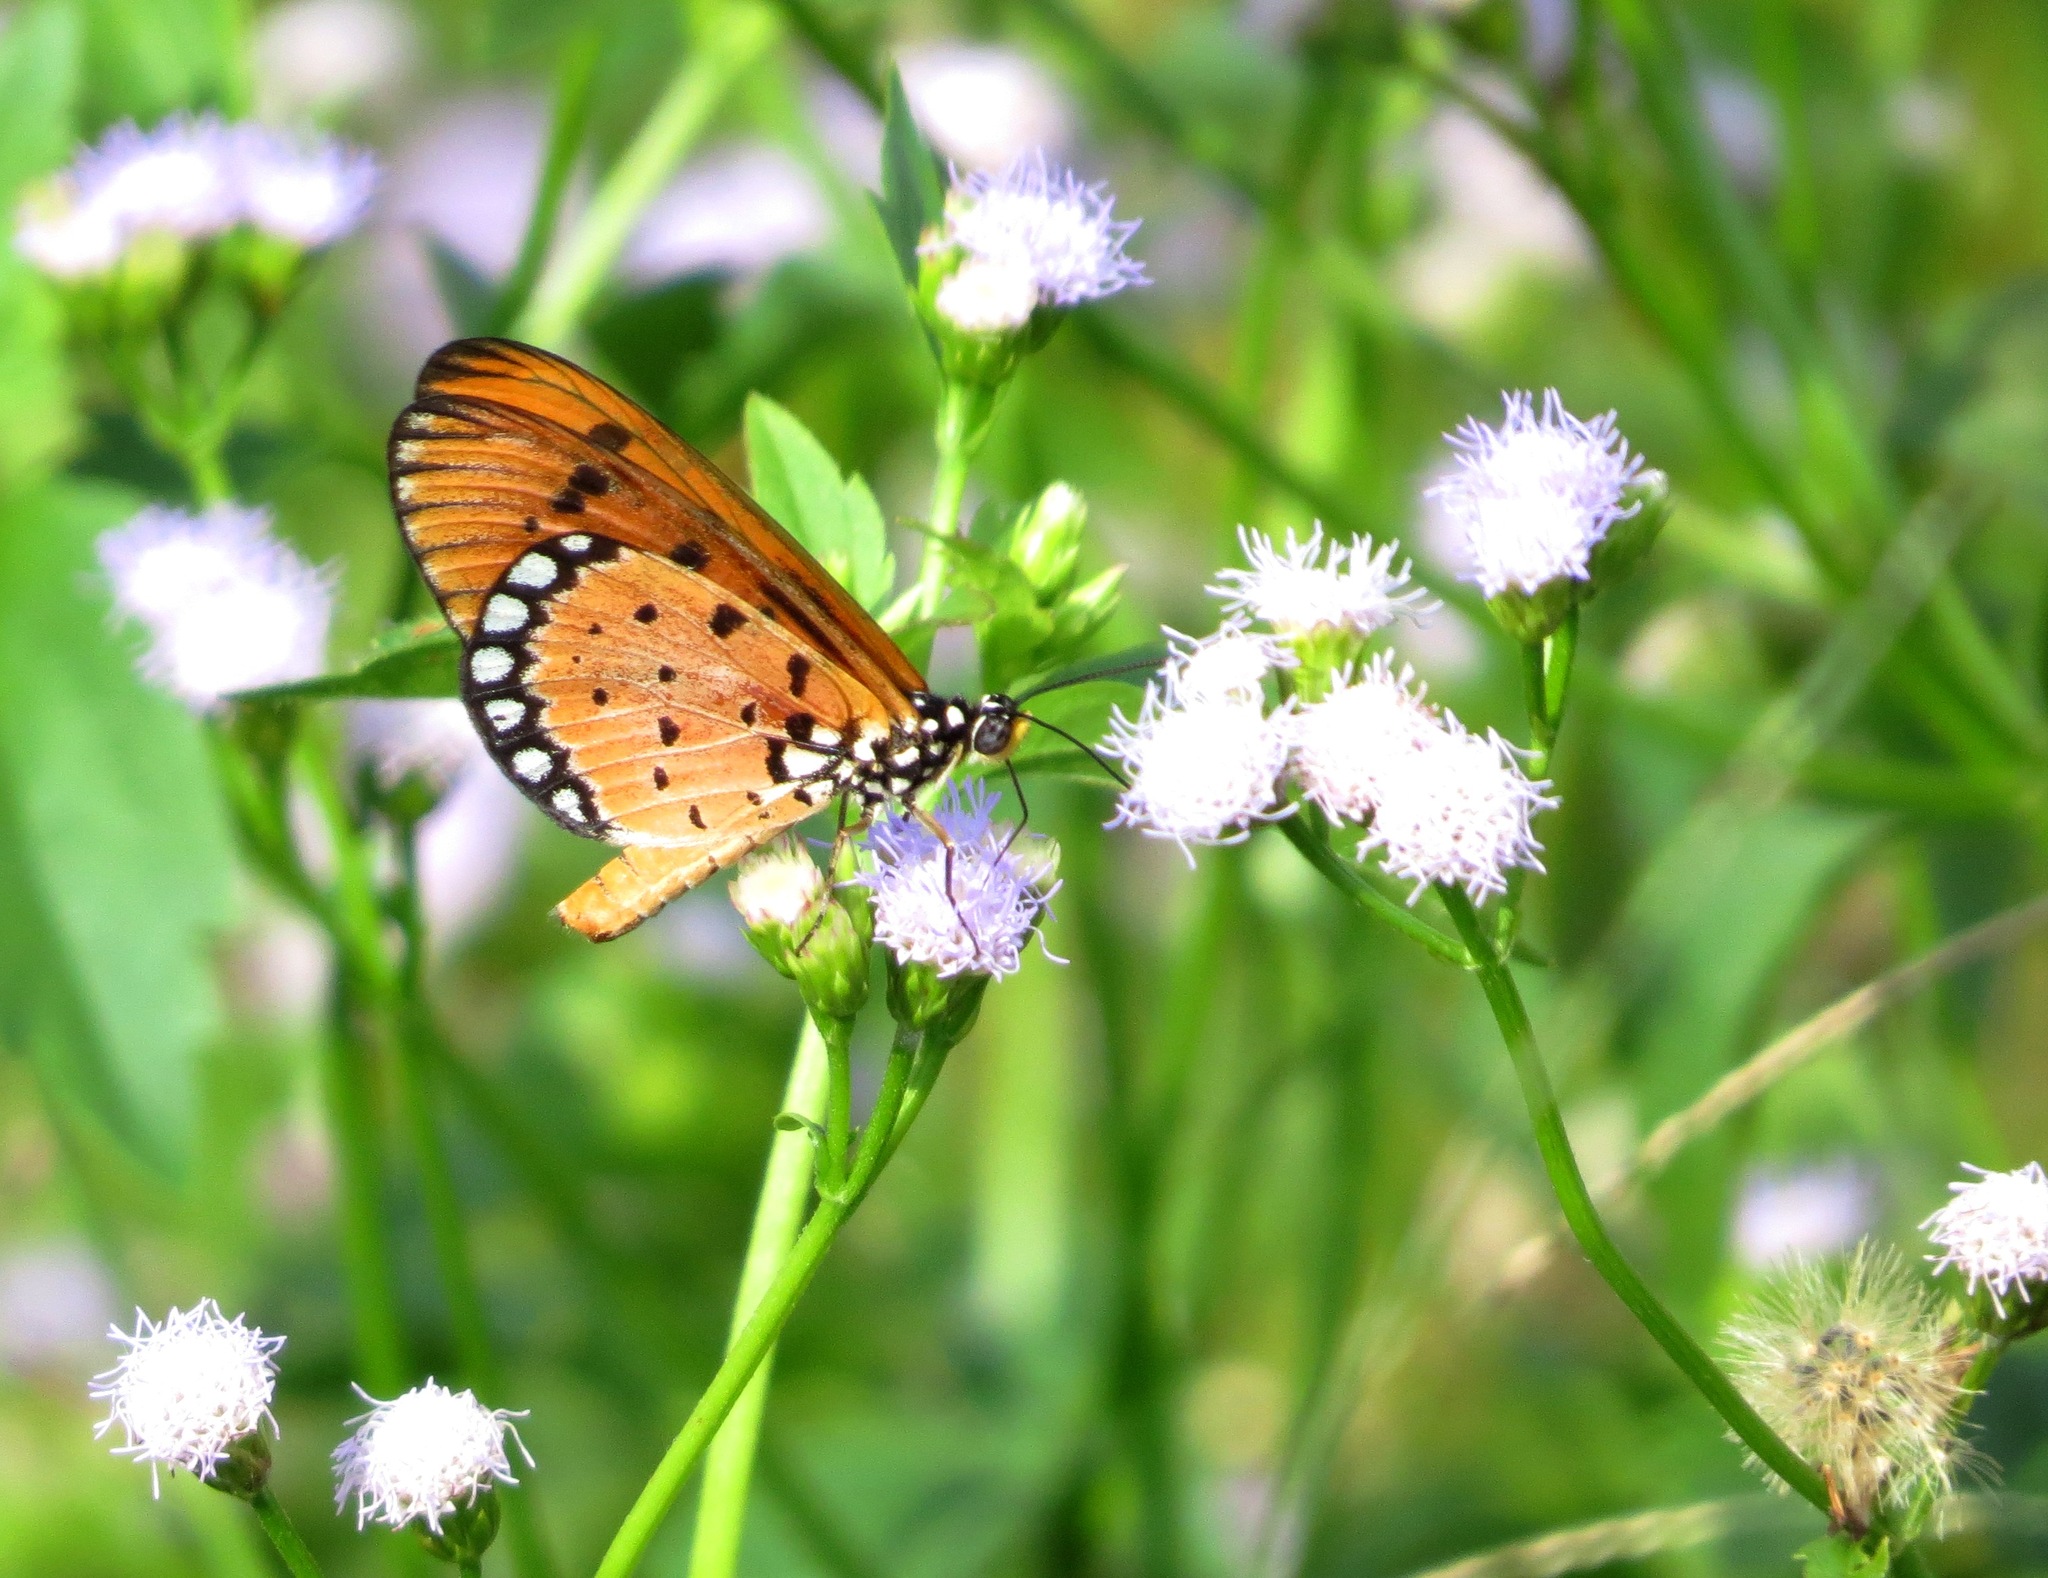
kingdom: Animalia
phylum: Arthropoda
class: Insecta
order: Lepidoptera
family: Nymphalidae
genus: Acraea
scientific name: Acraea terpsicore
